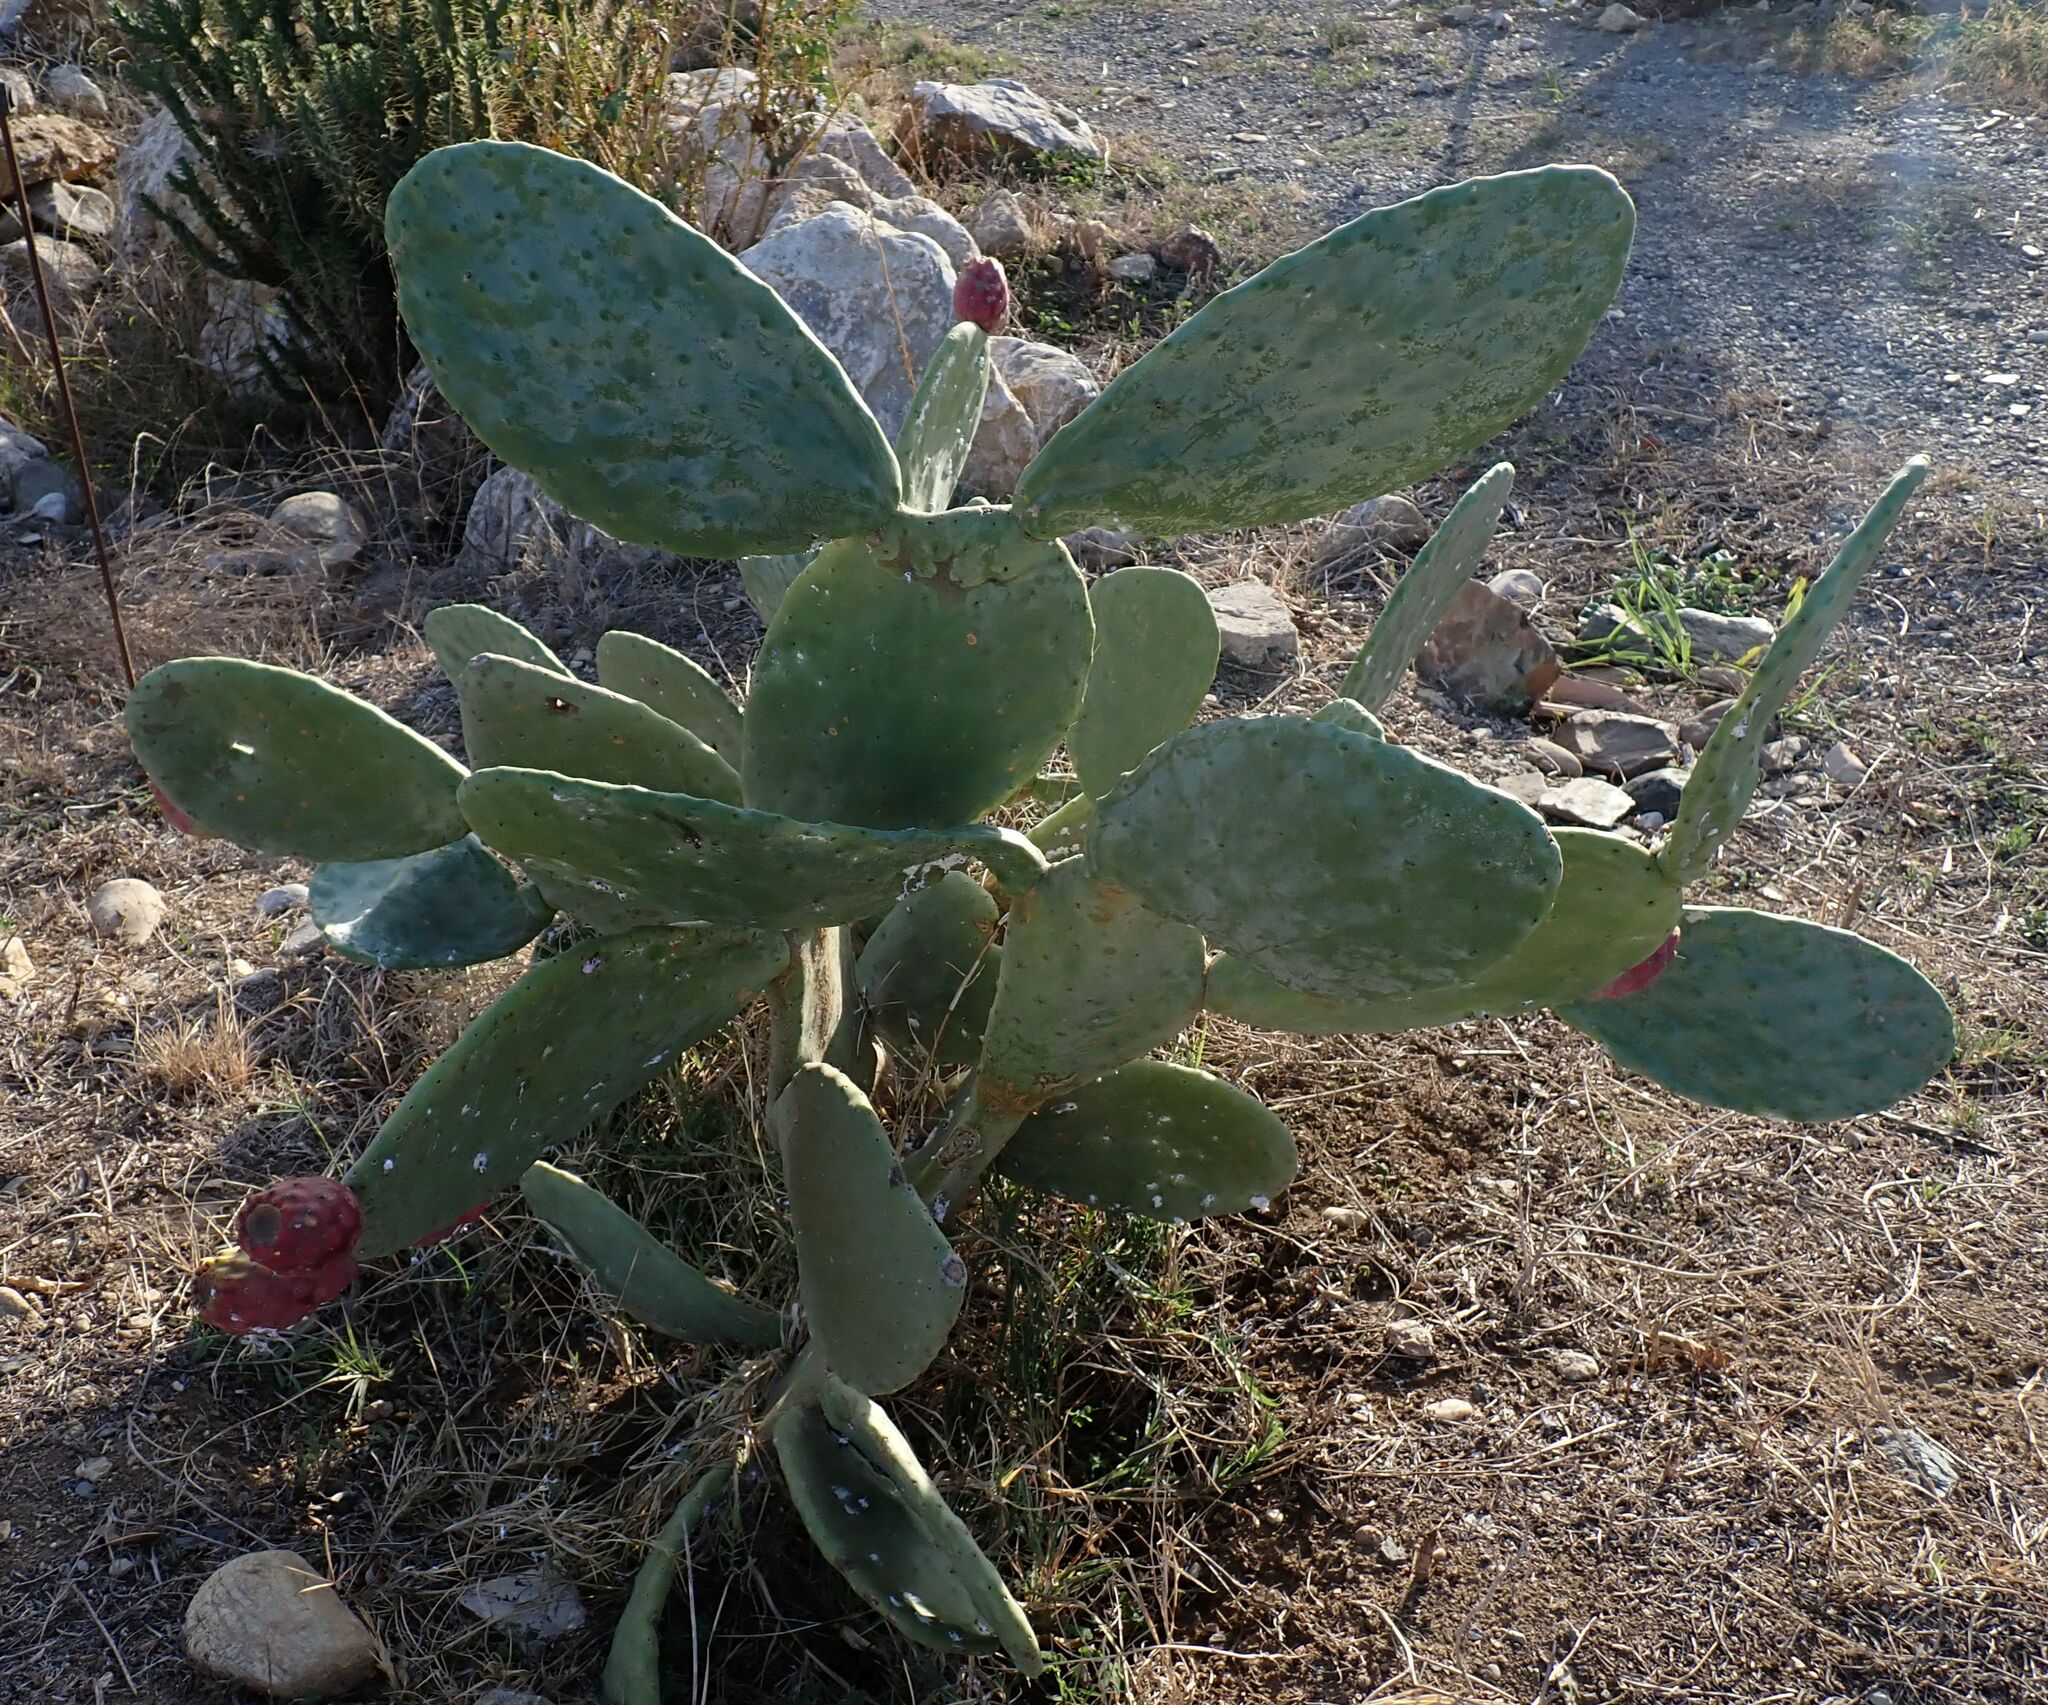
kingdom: Plantae
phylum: Tracheophyta
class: Magnoliopsida
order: Caryophyllales
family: Cactaceae
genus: Opuntia
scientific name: Opuntia ficus-indica
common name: Barbary fig
